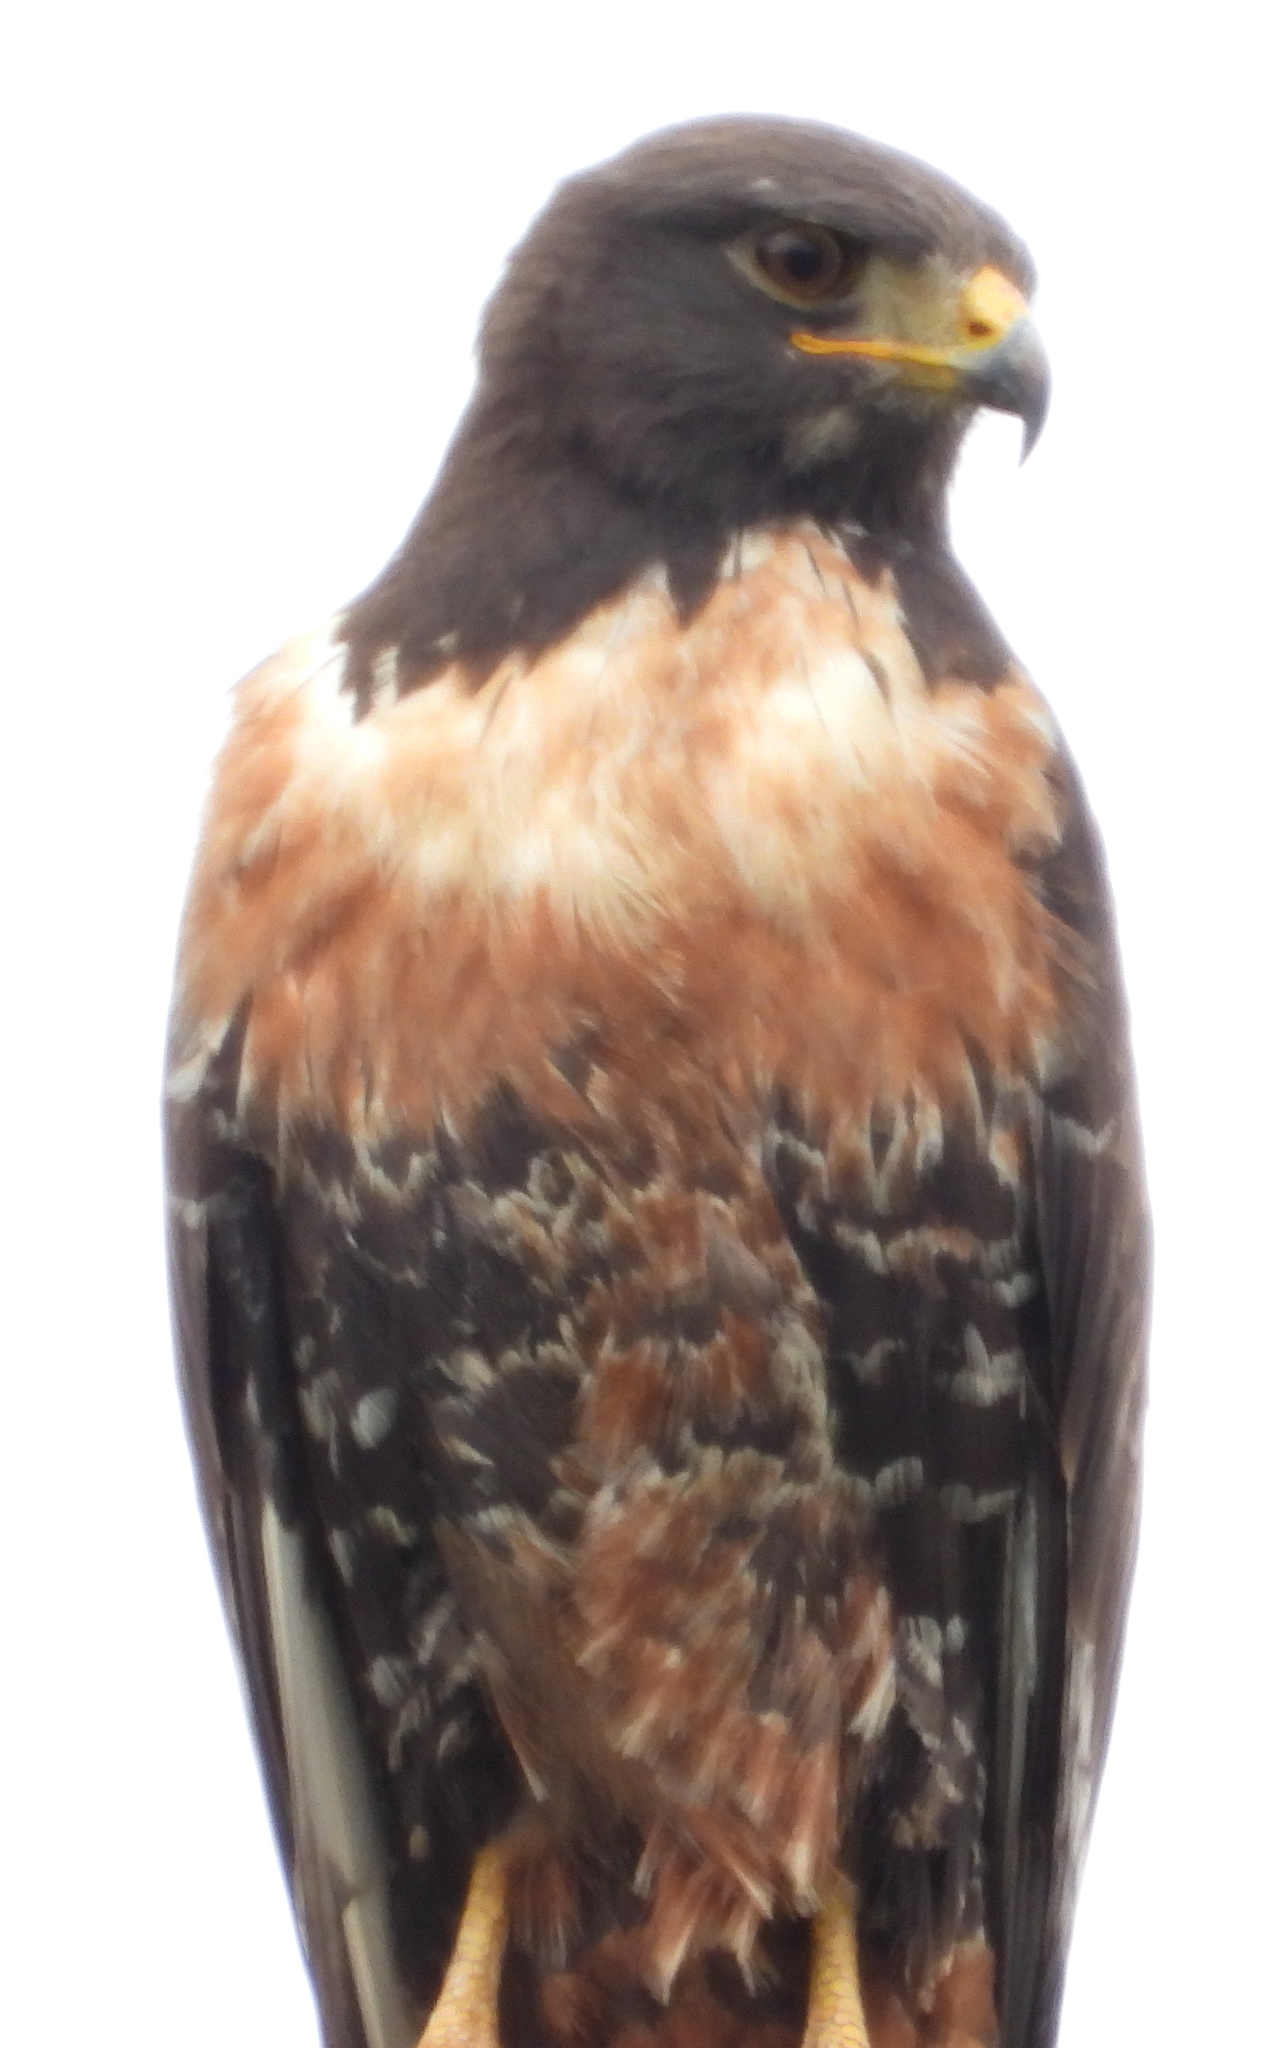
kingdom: Animalia
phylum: Chordata
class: Aves
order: Accipitriformes
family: Accipitridae
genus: Buteo
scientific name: Buteo rufofuscus
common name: Jackal buzzard
